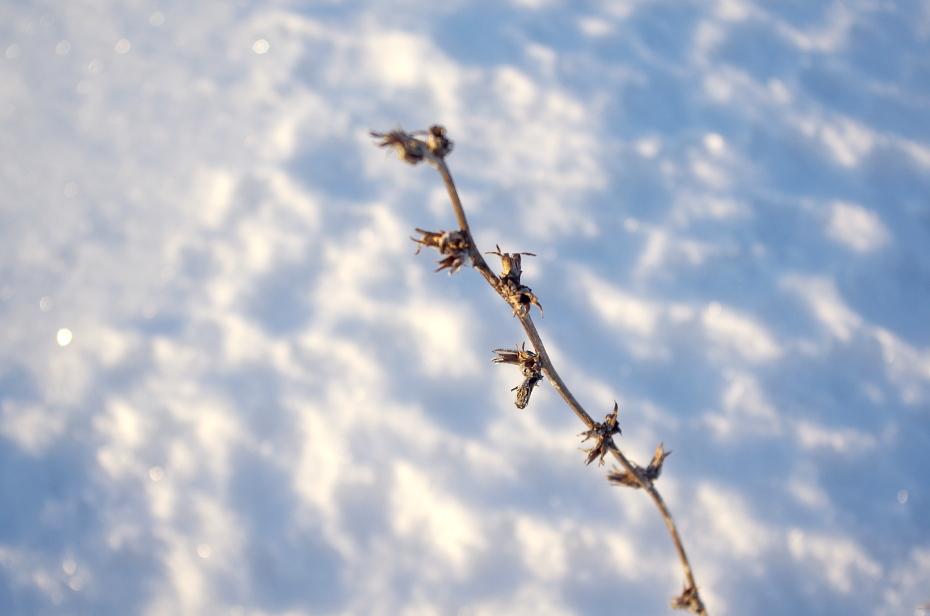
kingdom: Plantae
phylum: Tracheophyta
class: Magnoliopsida
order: Asterales
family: Asteraceae
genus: Cichorium
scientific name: Cichorium intybus
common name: Chicory
